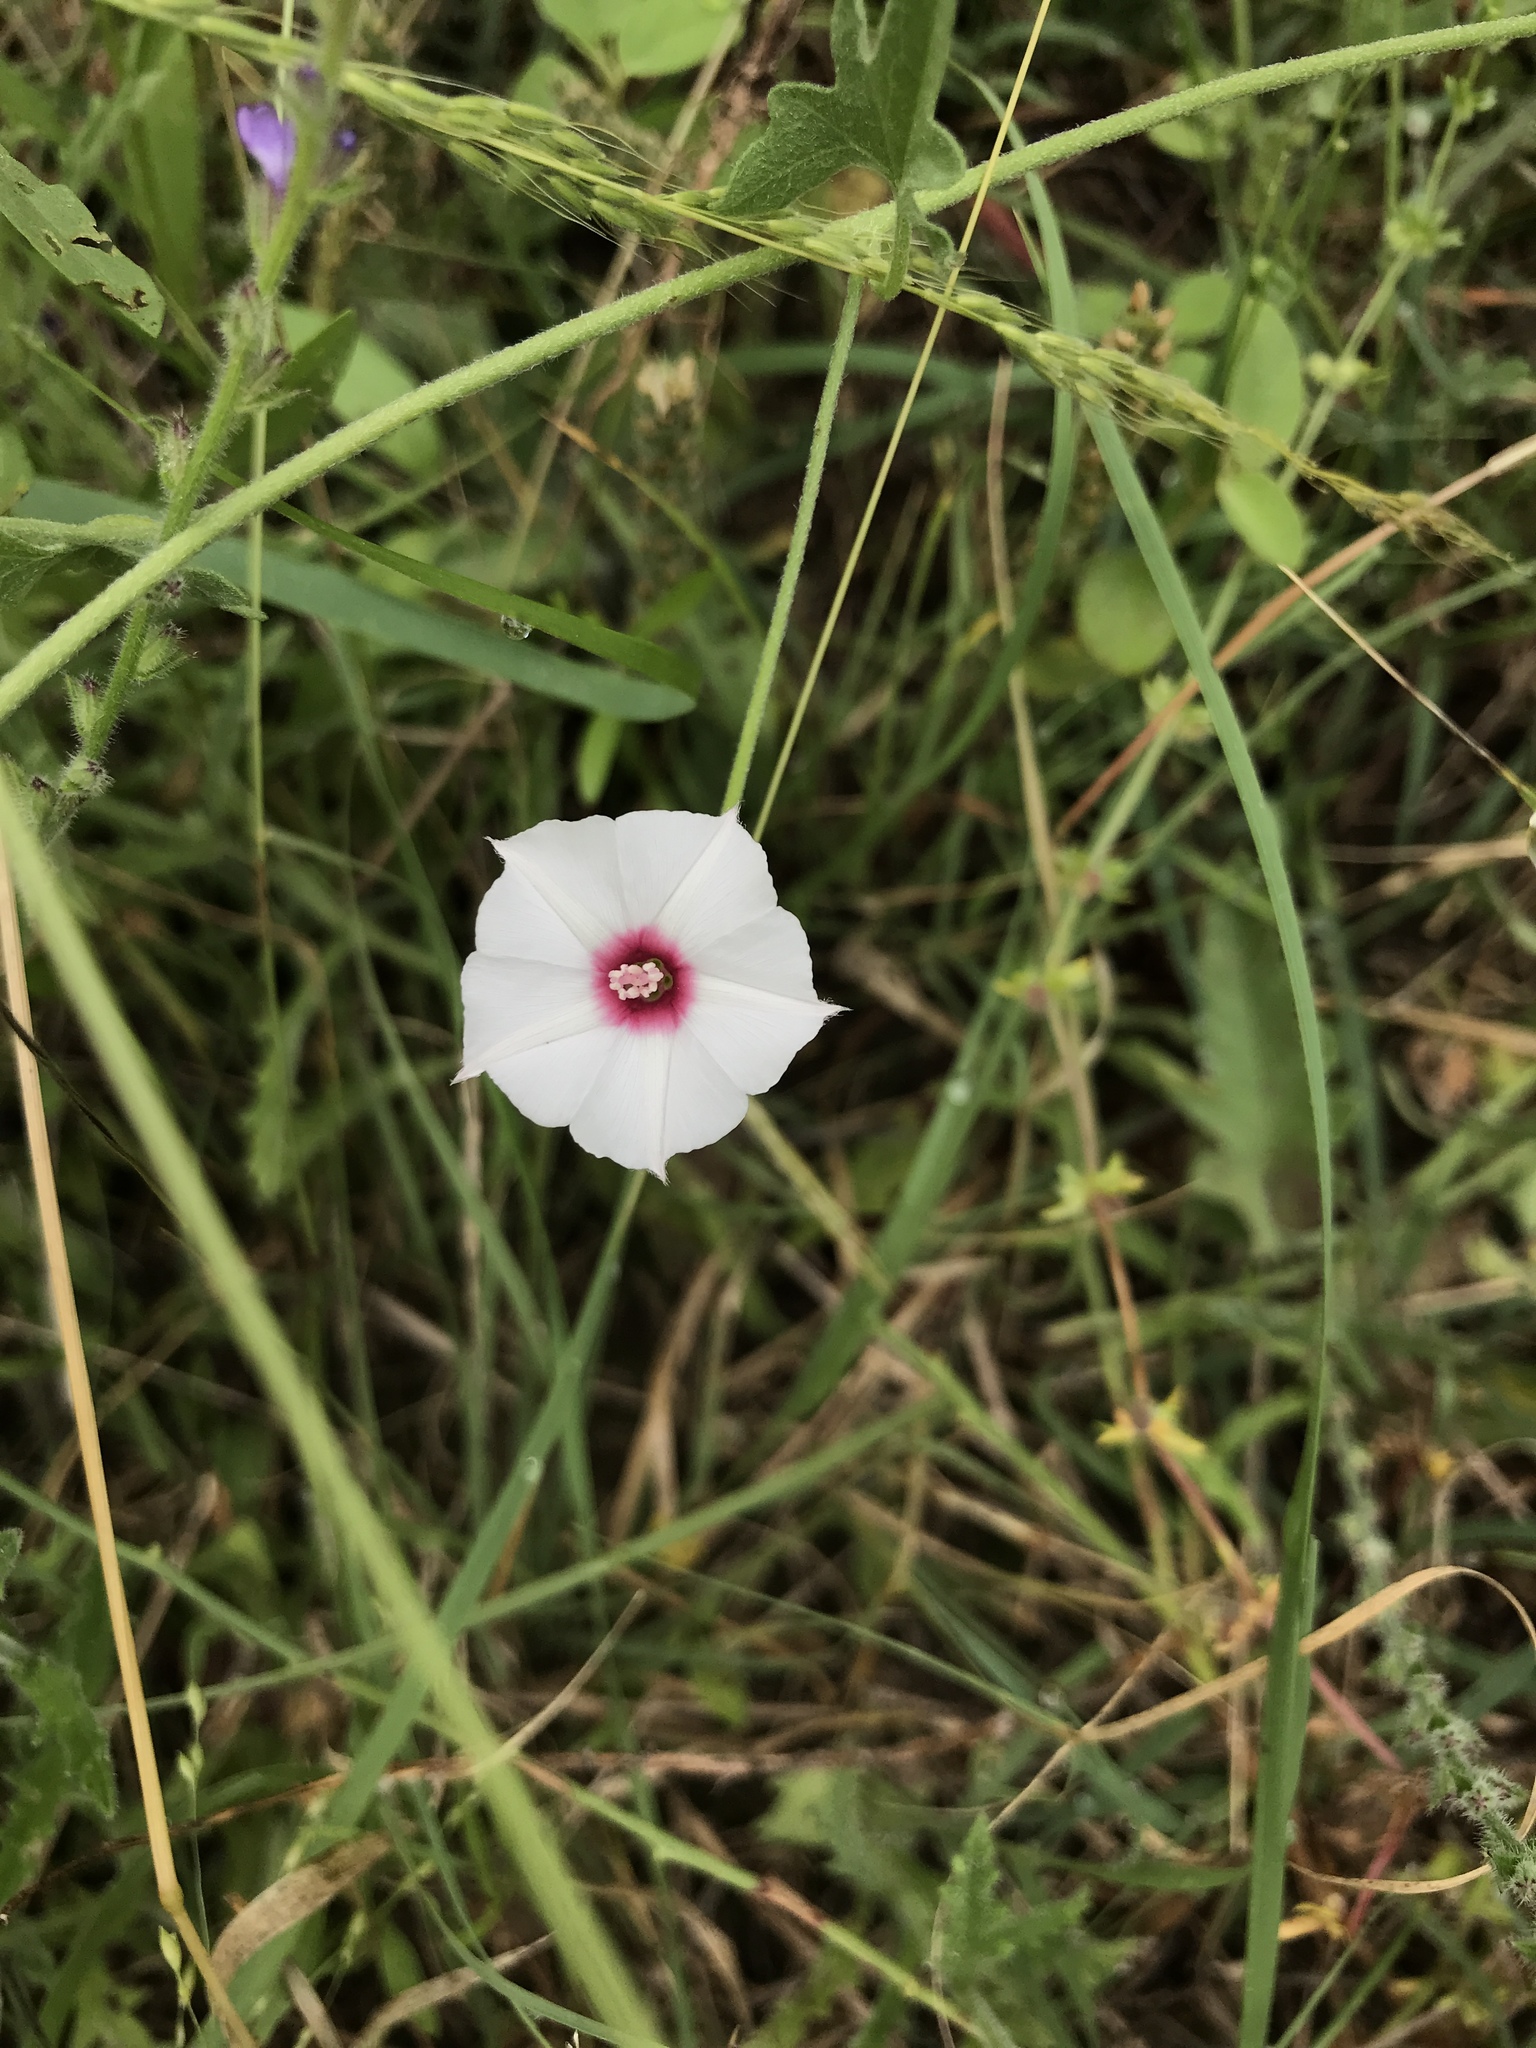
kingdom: Plantae
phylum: Tracheophyta
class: Magnoliopsida
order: Solanales
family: Convolvulaceae
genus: Convolvulus
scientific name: Convolvulus equitans
